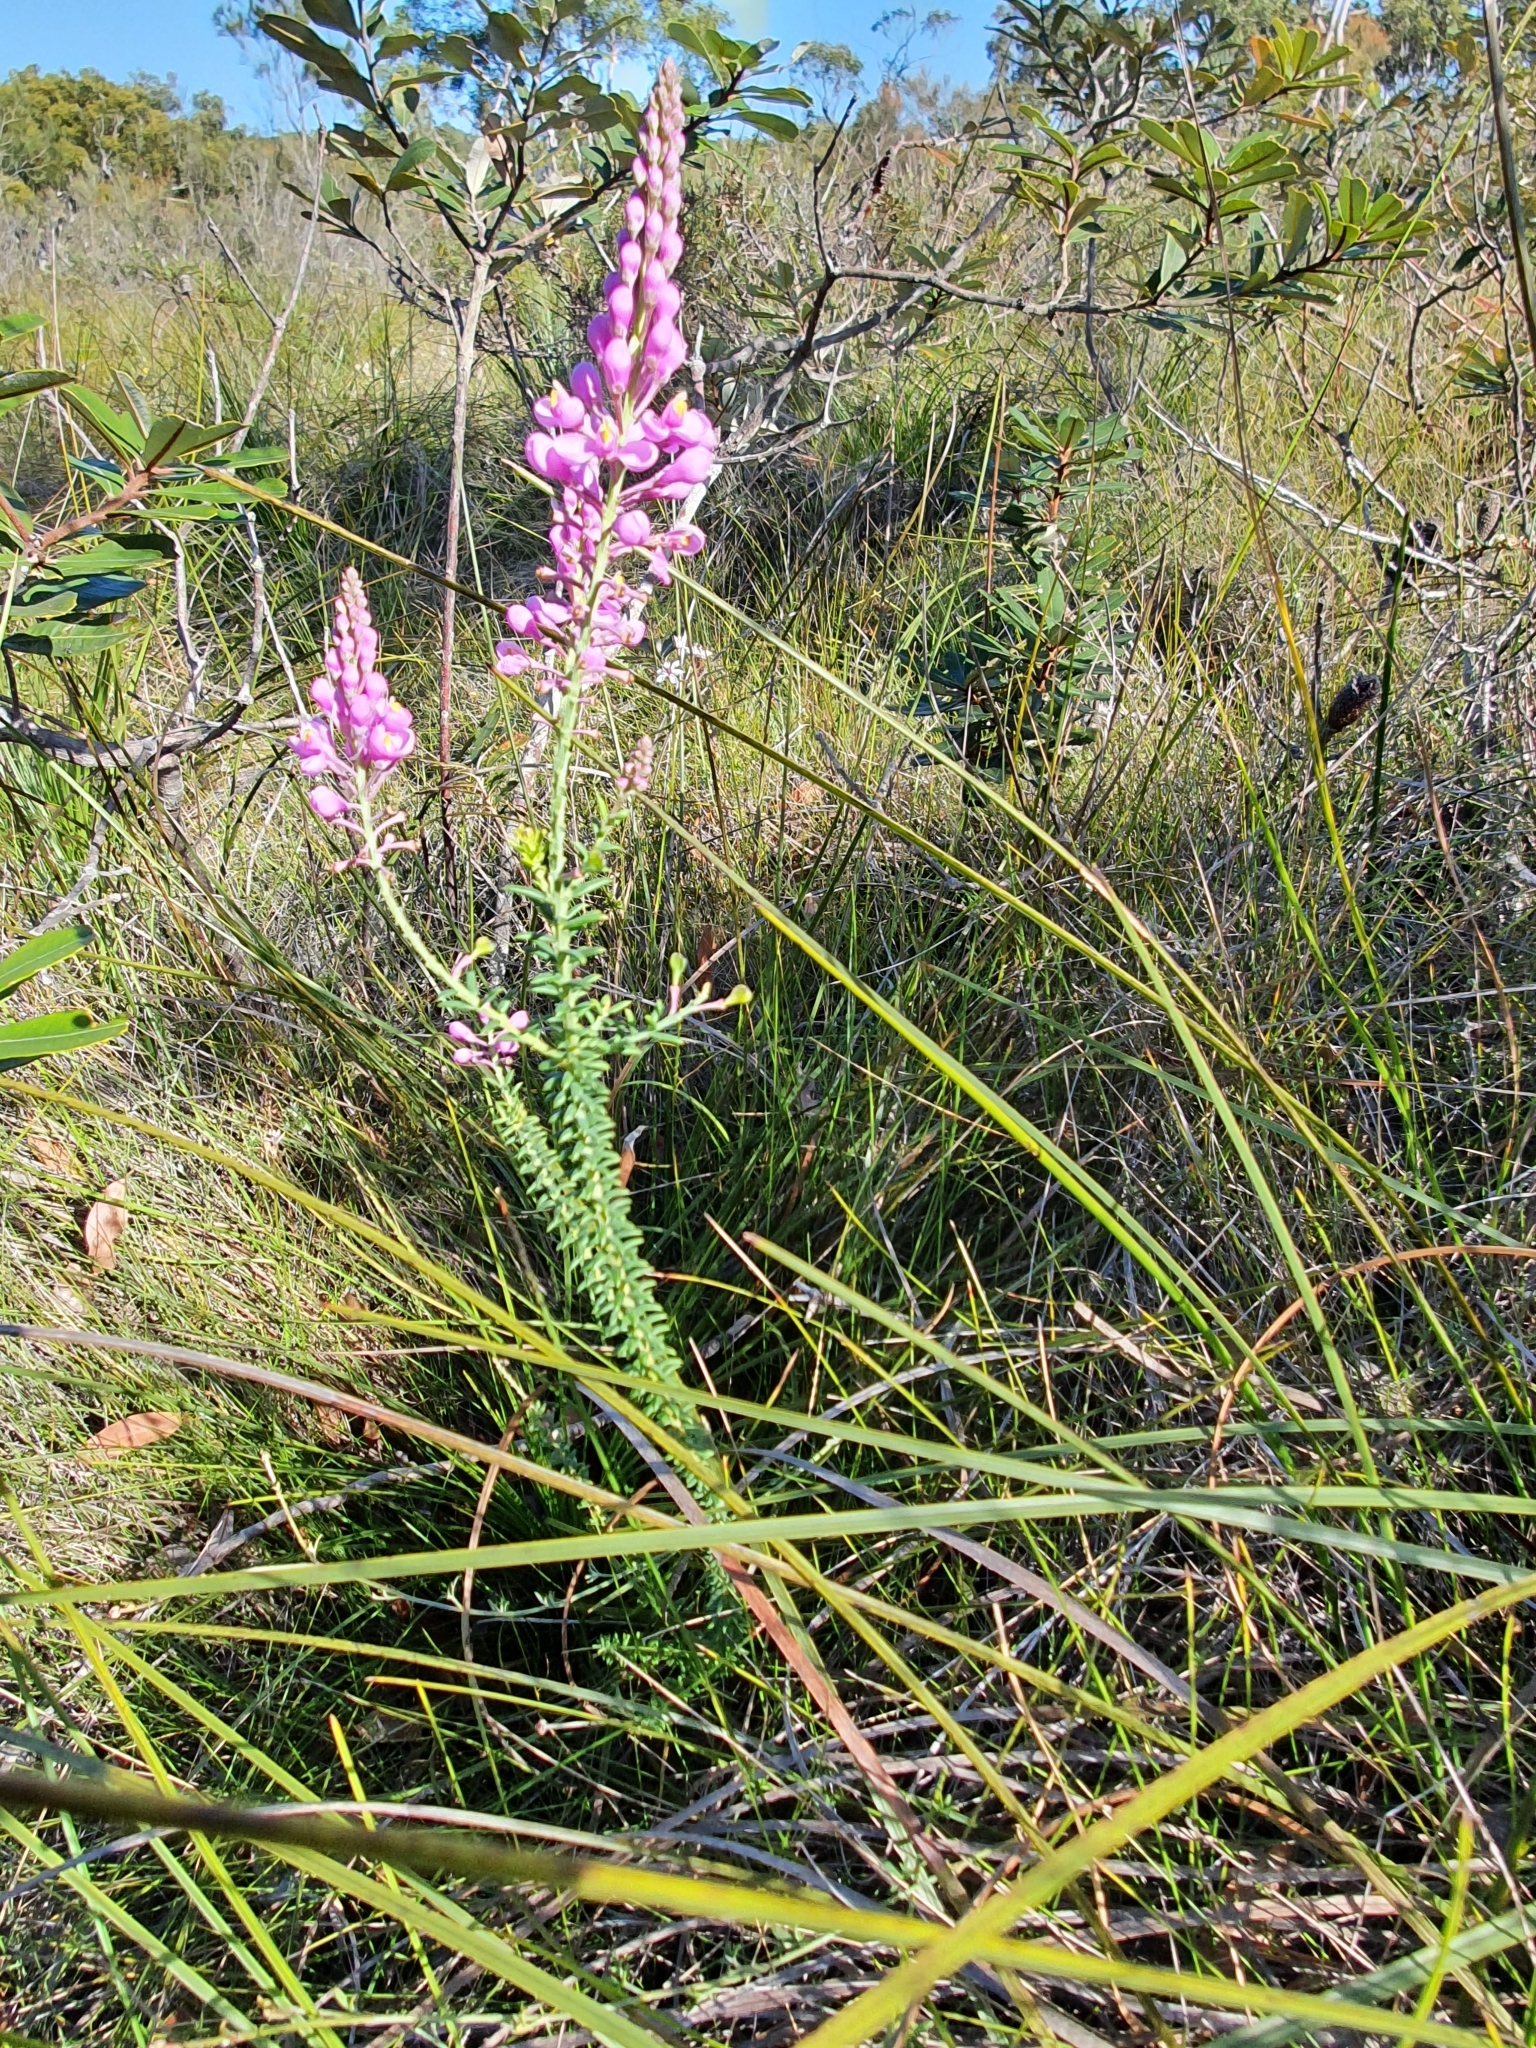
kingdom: Plantae
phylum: Tracheophyta
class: Magnoliopsida
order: Fabales
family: Polygalaceae
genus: Comesperma
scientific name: Comesperma ericinum
